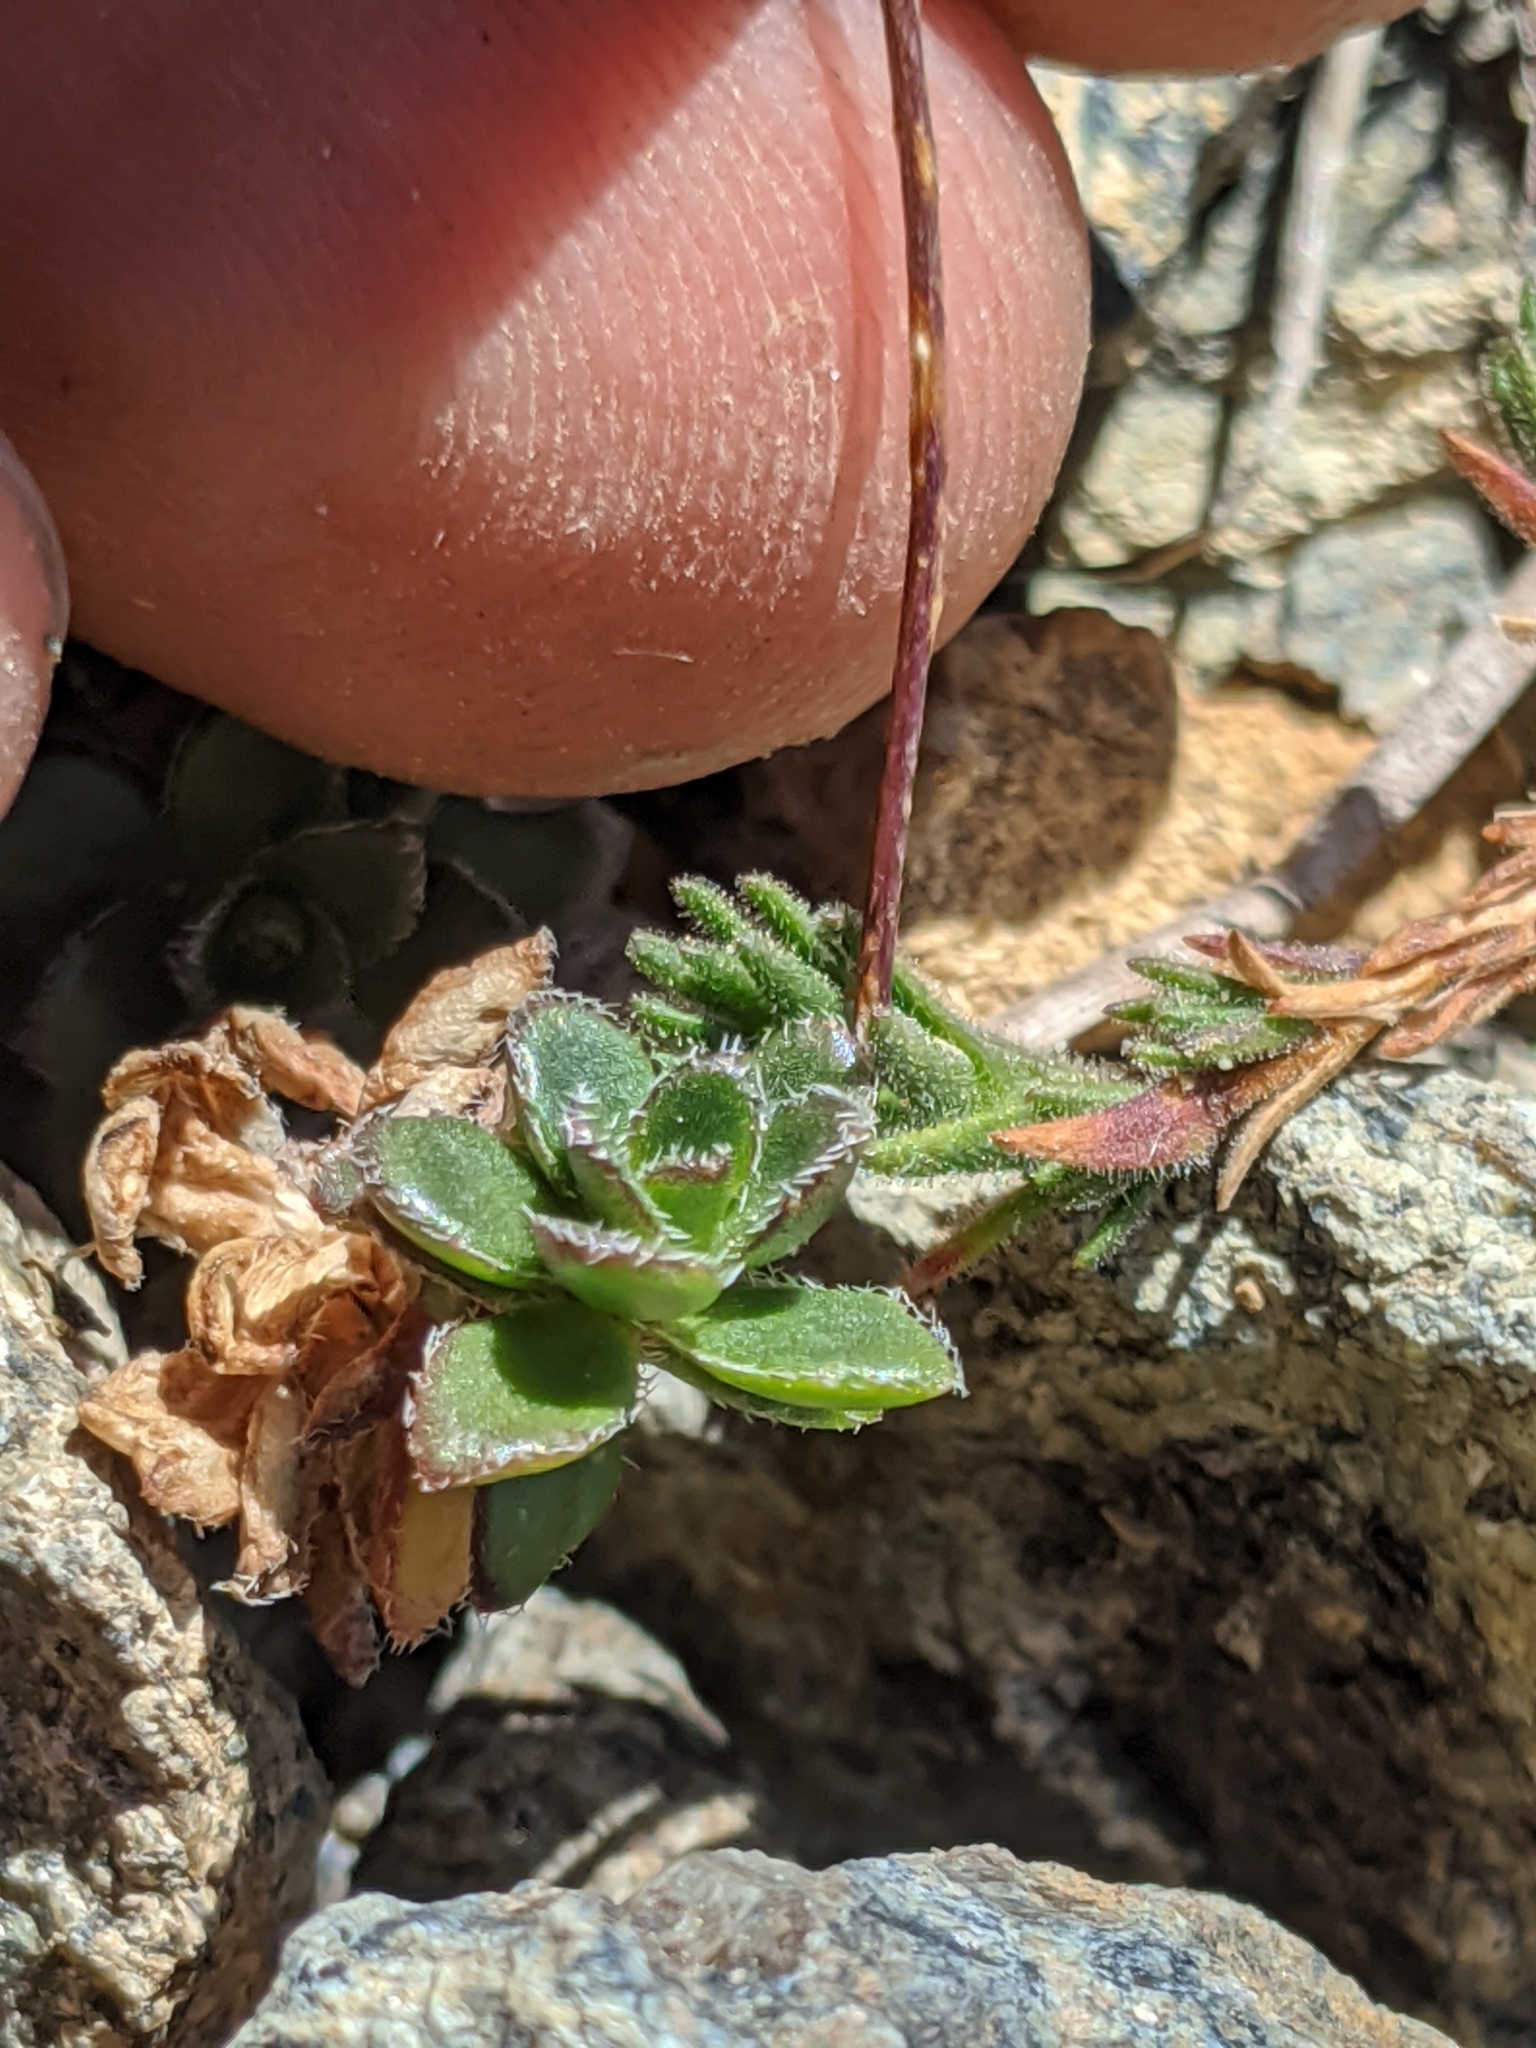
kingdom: Plantae
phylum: Tracheophyta
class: Magnoliopsida
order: Brassicales
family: Brassicaceae
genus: Draba
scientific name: Draba carnosula
